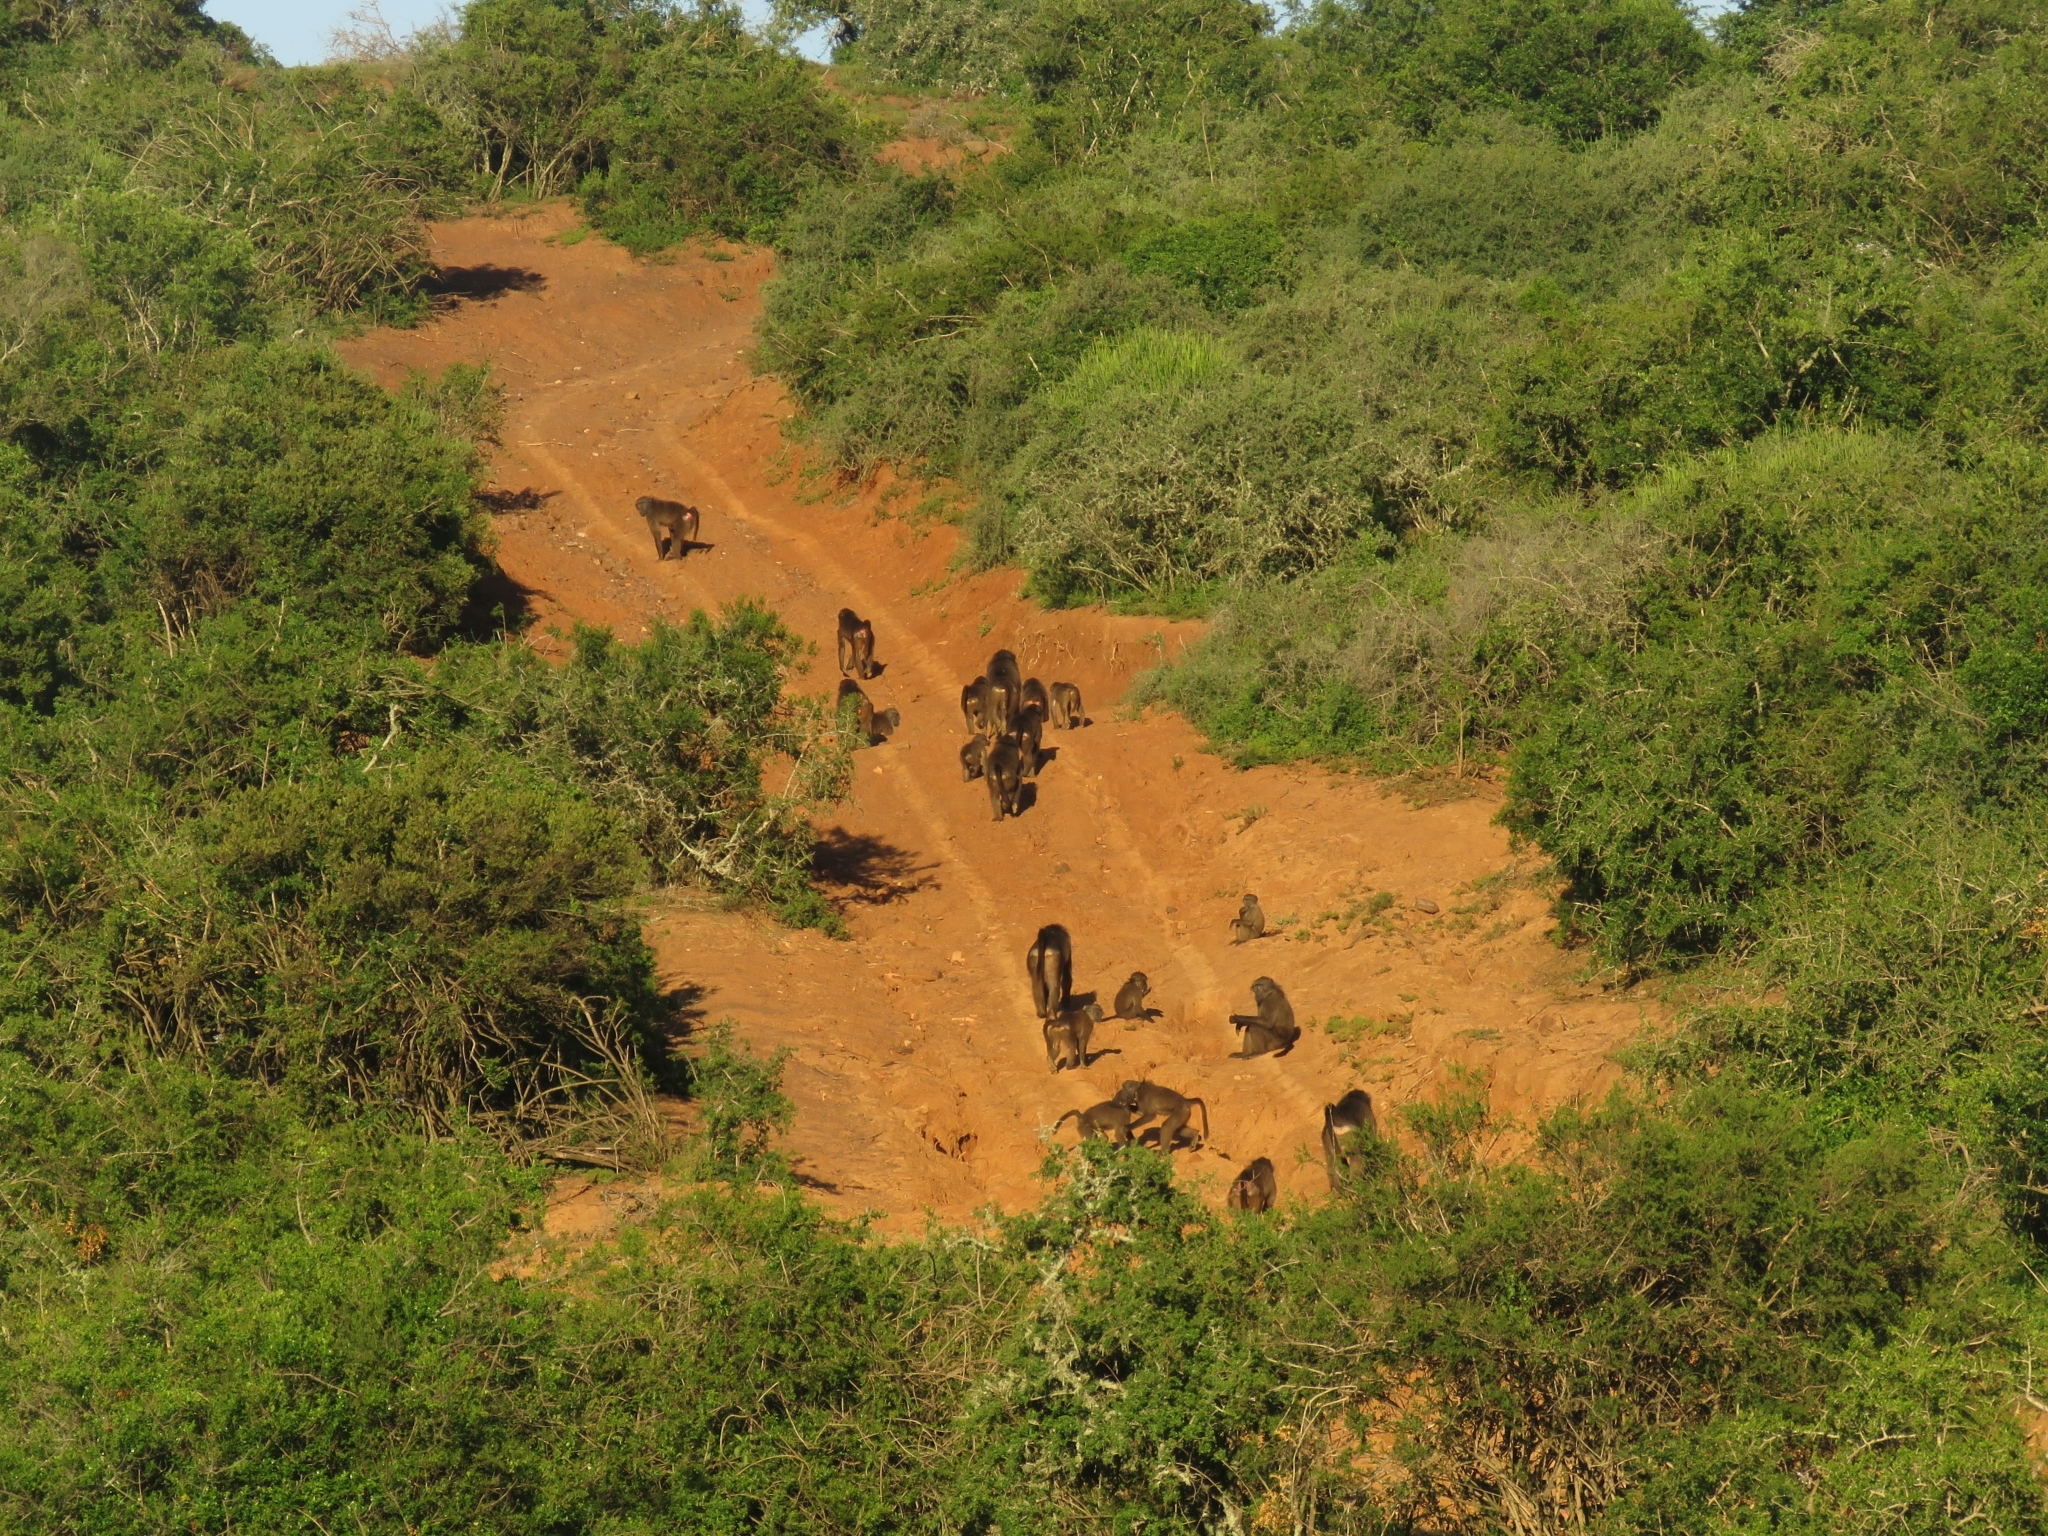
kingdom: Animalia
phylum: Chordata
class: Mammalia
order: Primates
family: Cercopithecidae
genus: Papio
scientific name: Papio ursinus
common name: Chacma baboon
